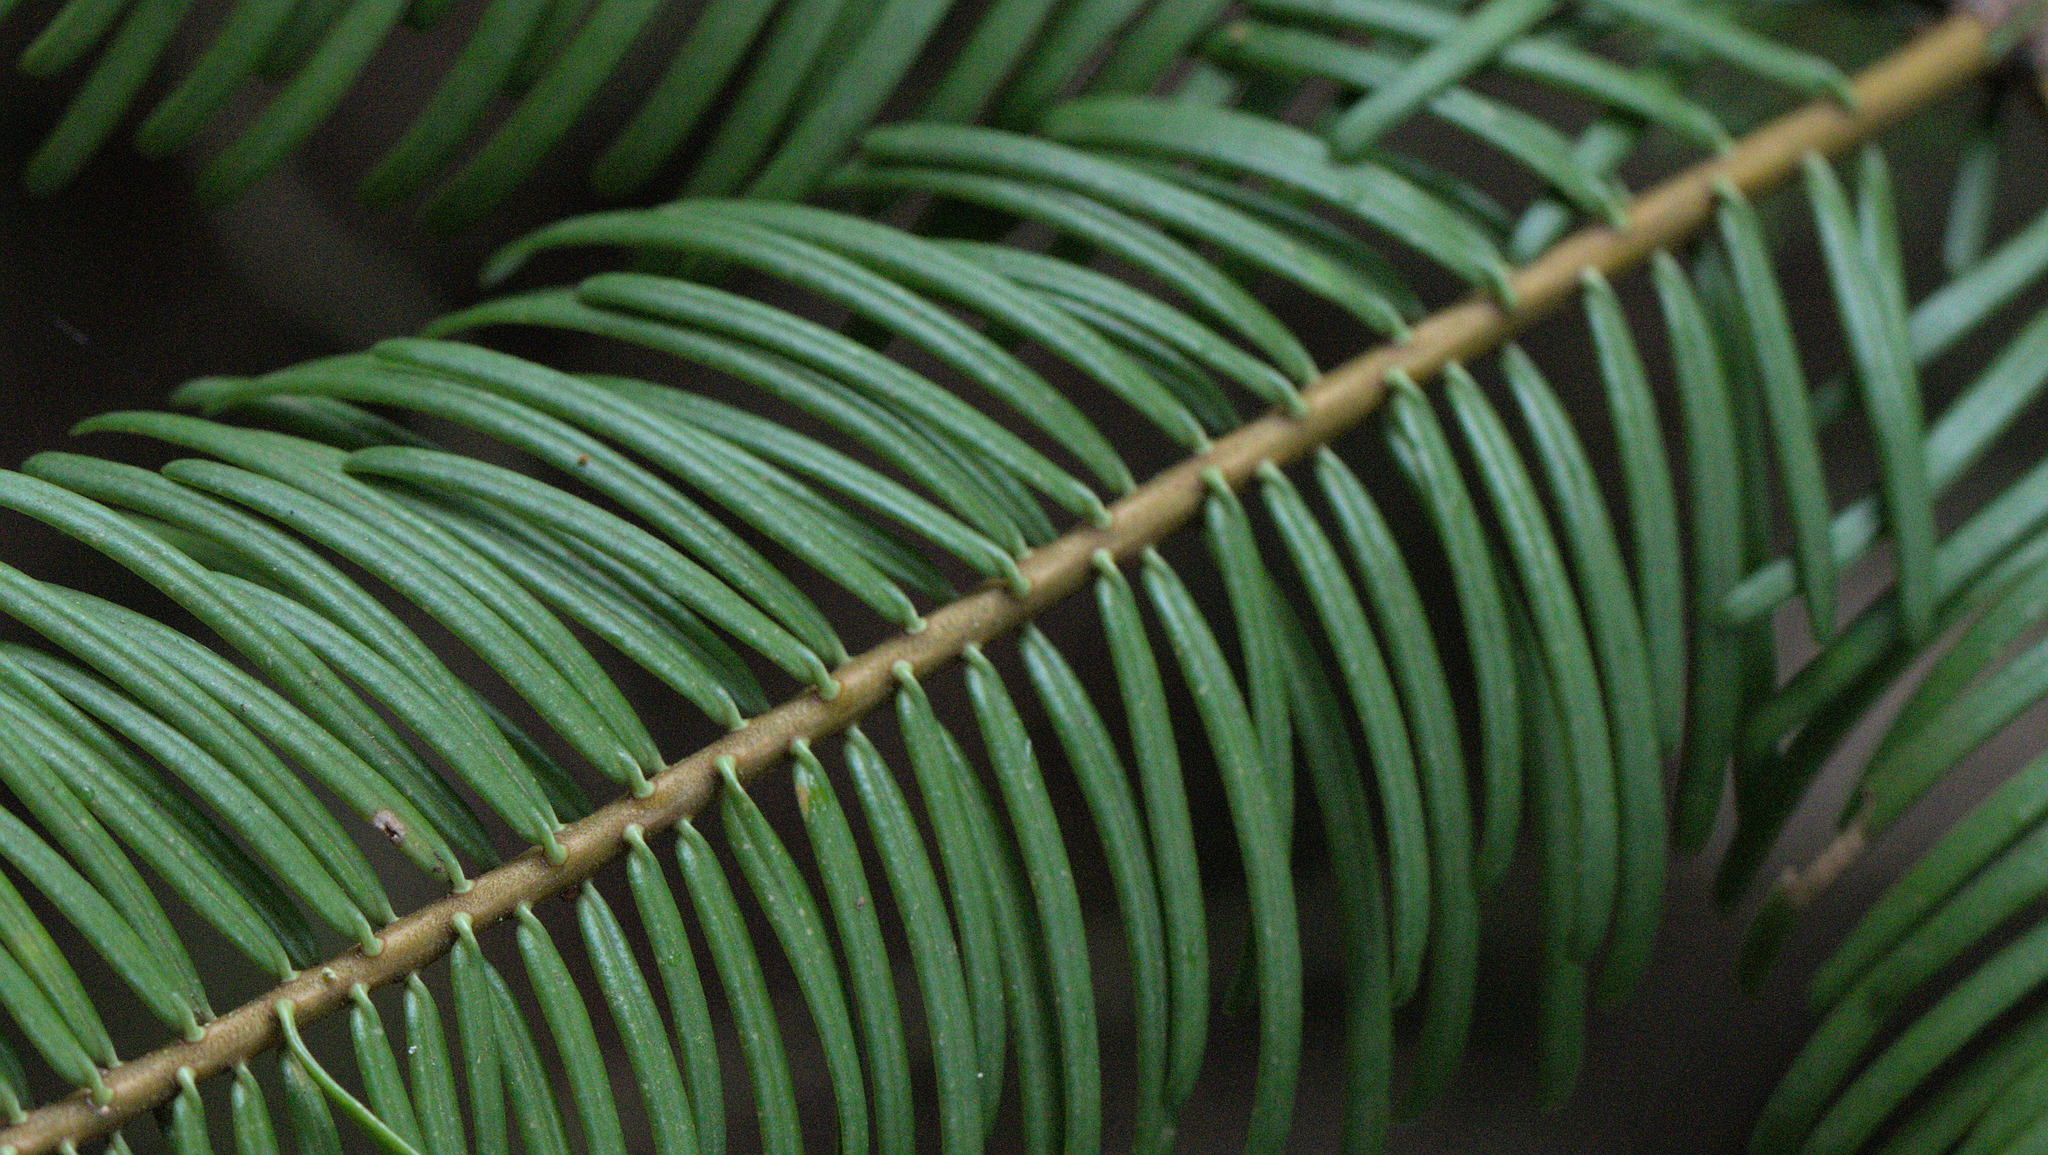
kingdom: Plantae
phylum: Tracheophyta
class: Pinopsida
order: Pinales
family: Pinaceae
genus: Abies
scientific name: Abies grandis
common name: Giant fir
